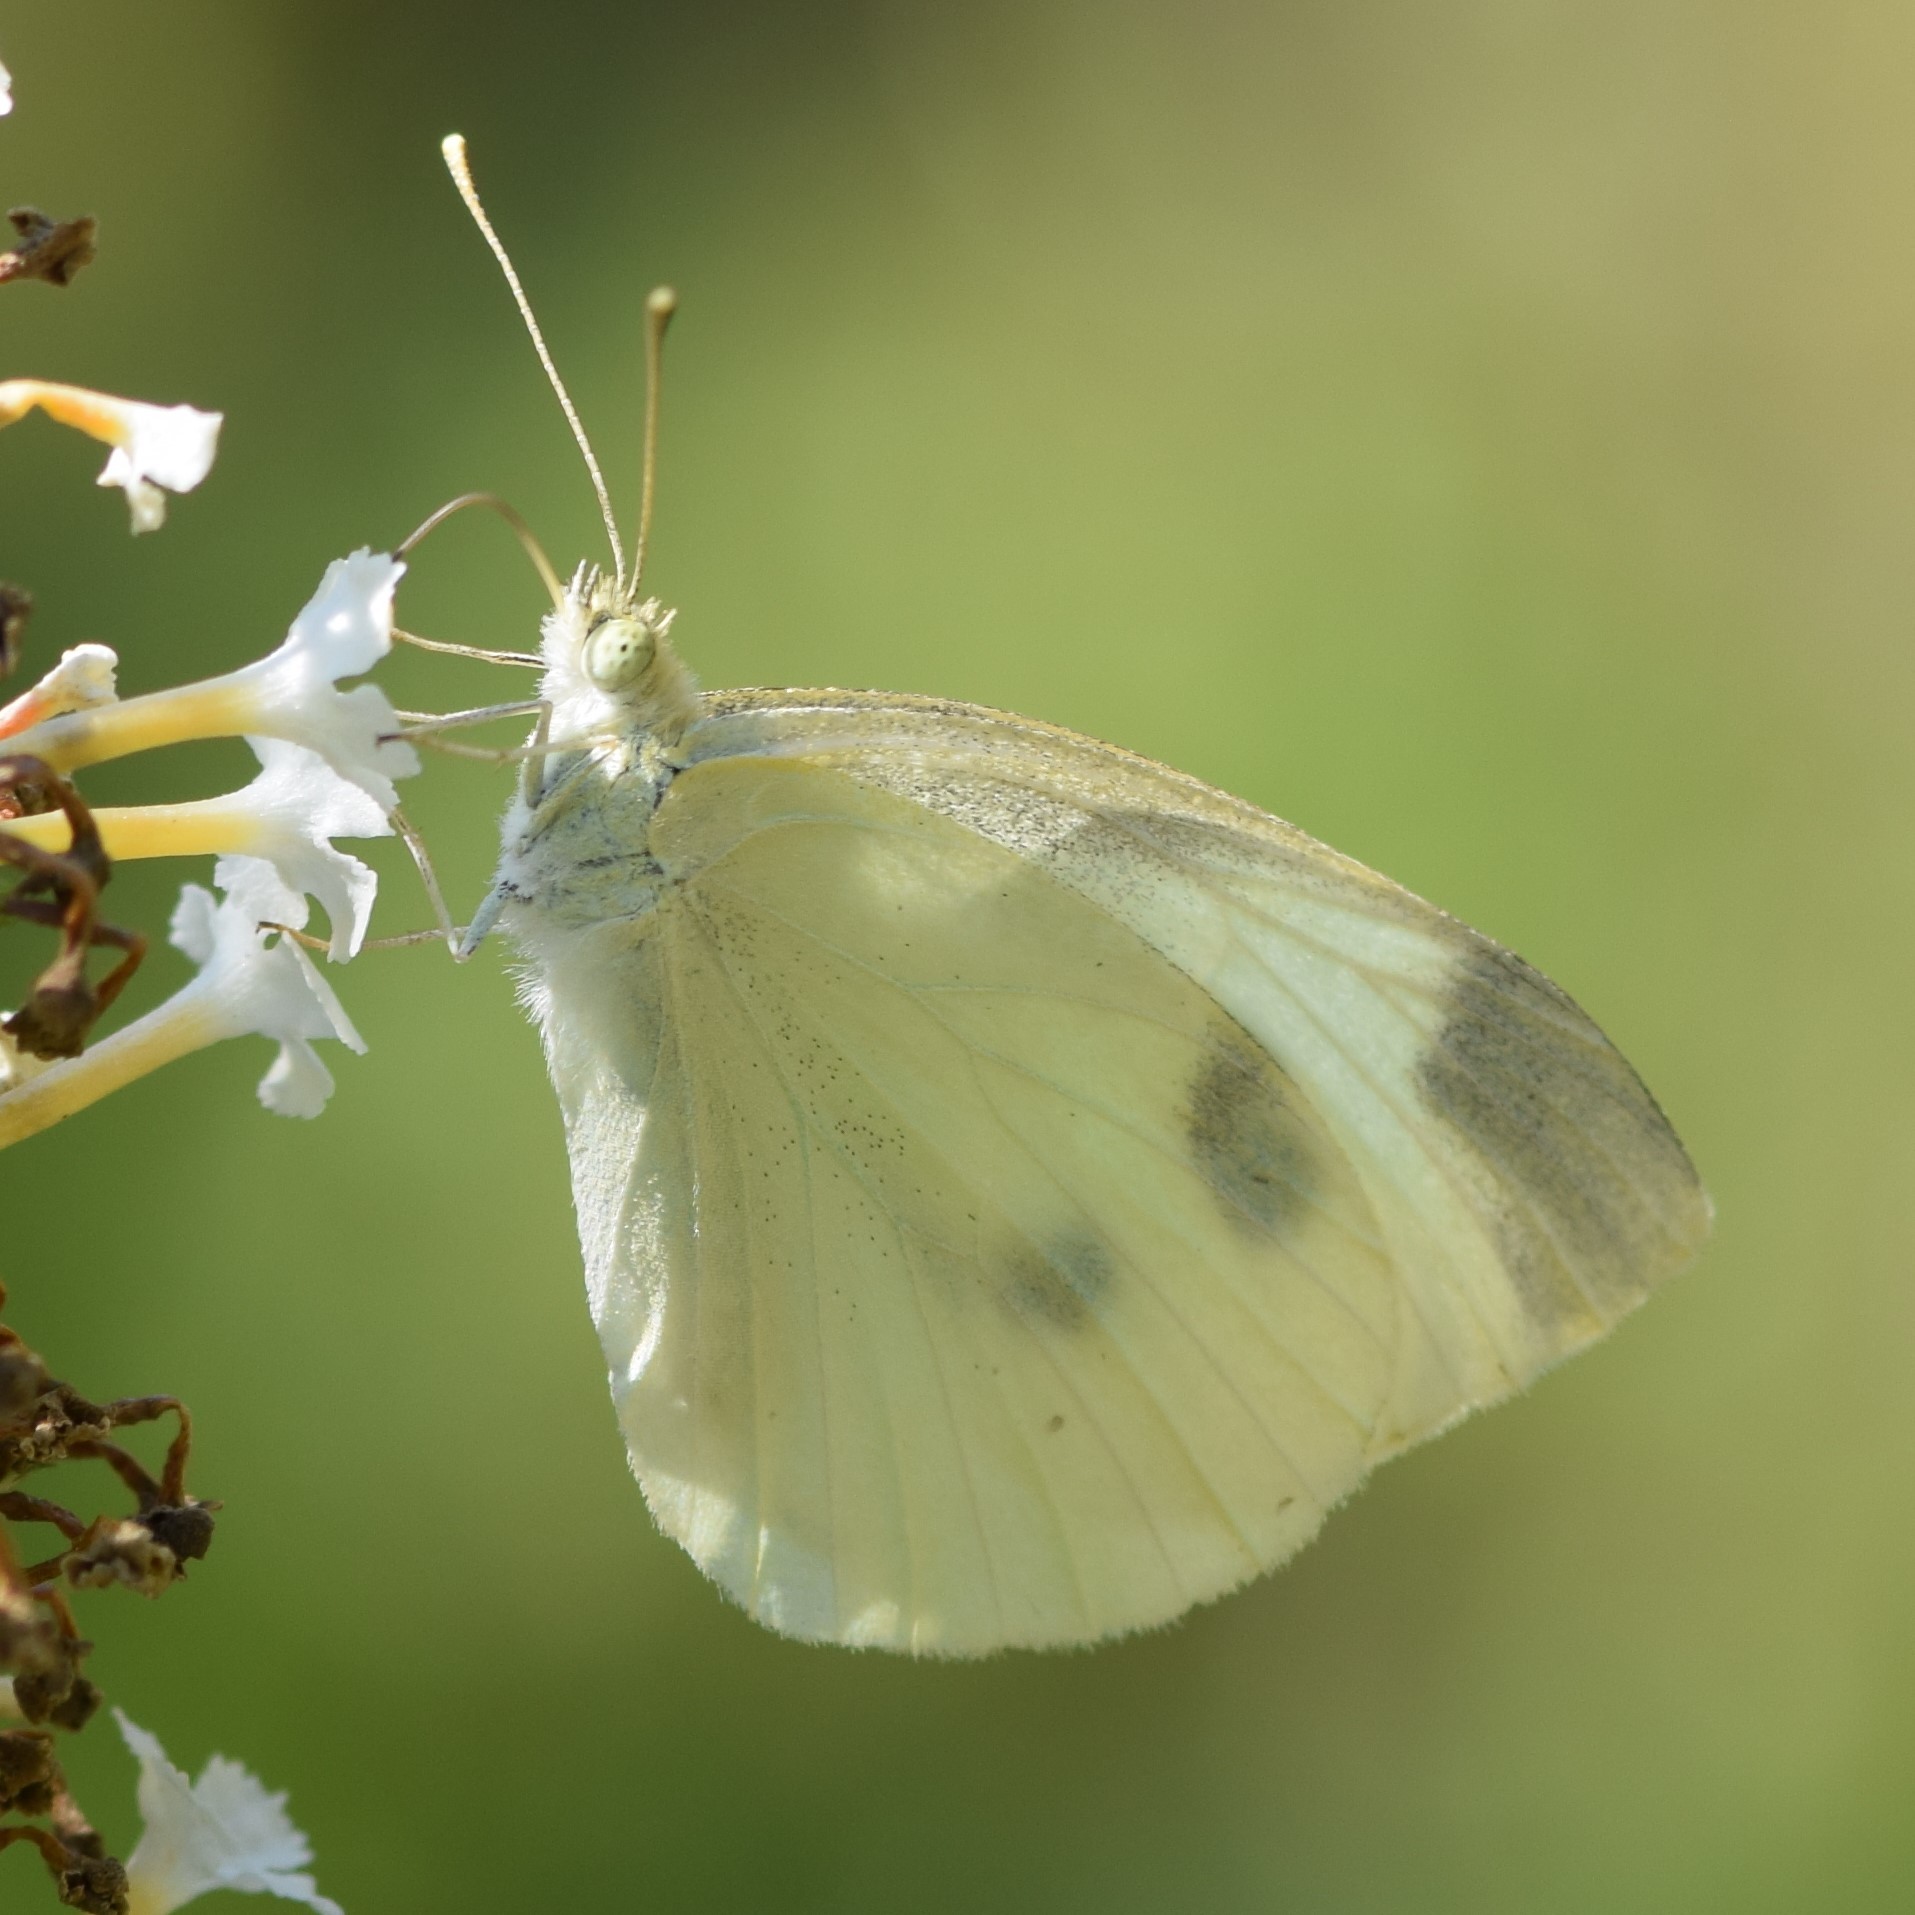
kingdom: Animalia
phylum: Arthropoda
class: Insecta
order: Lepidoptera
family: Pieridae
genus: Pieris
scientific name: Pieris rapae
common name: Small white
